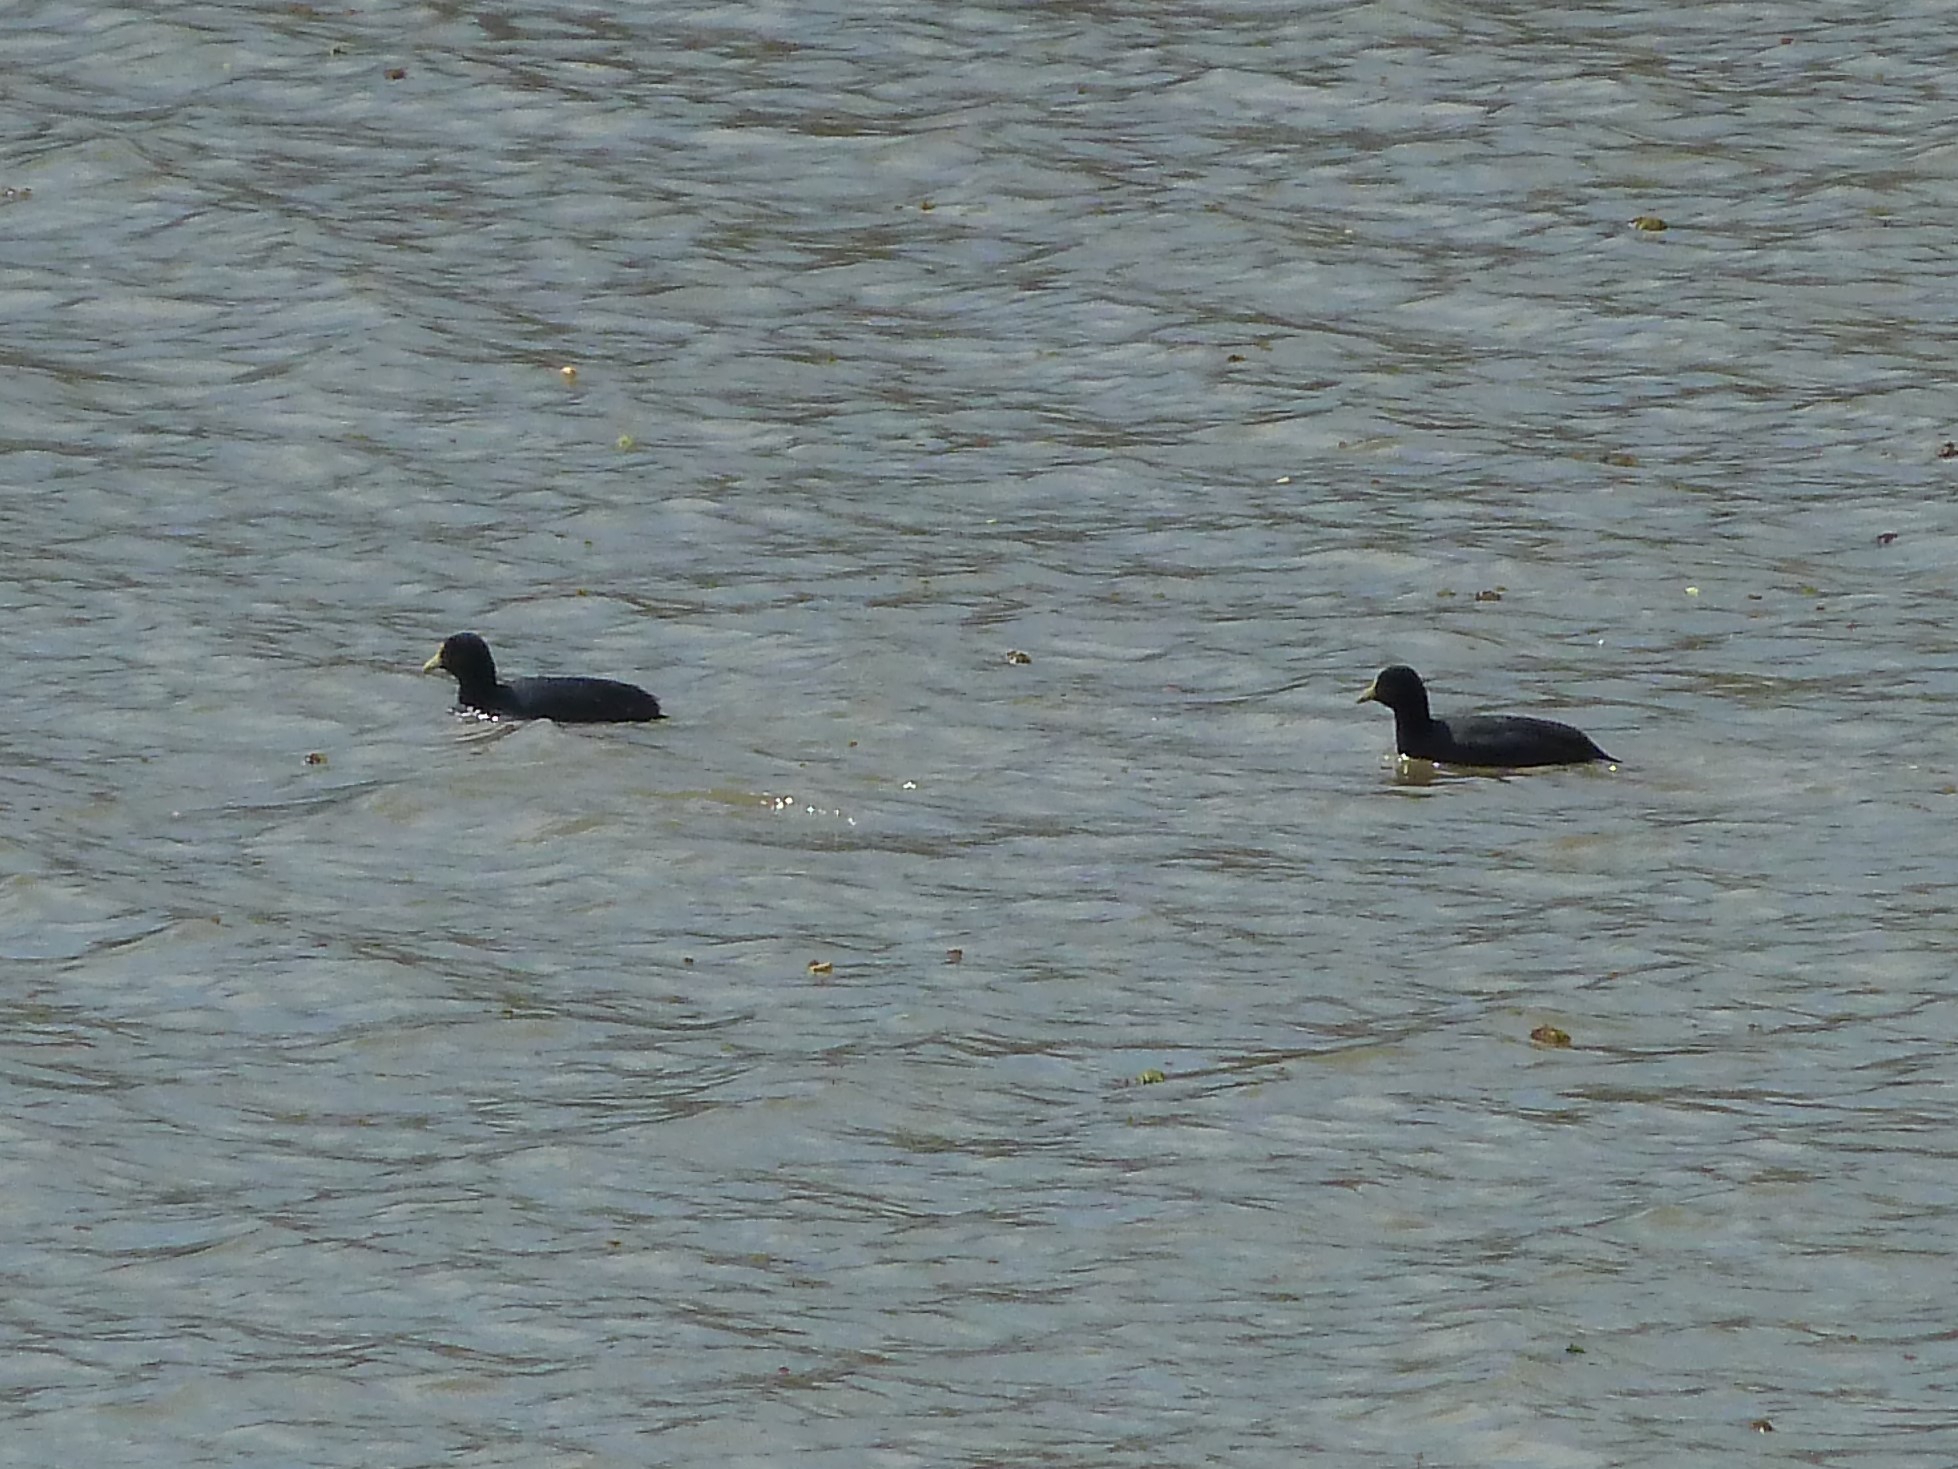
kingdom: Animalia
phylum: Chordata
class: Aves
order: Gruiformes
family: Rallidae
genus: Fulica
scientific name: Fulica leucoptera
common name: White-winged coot
